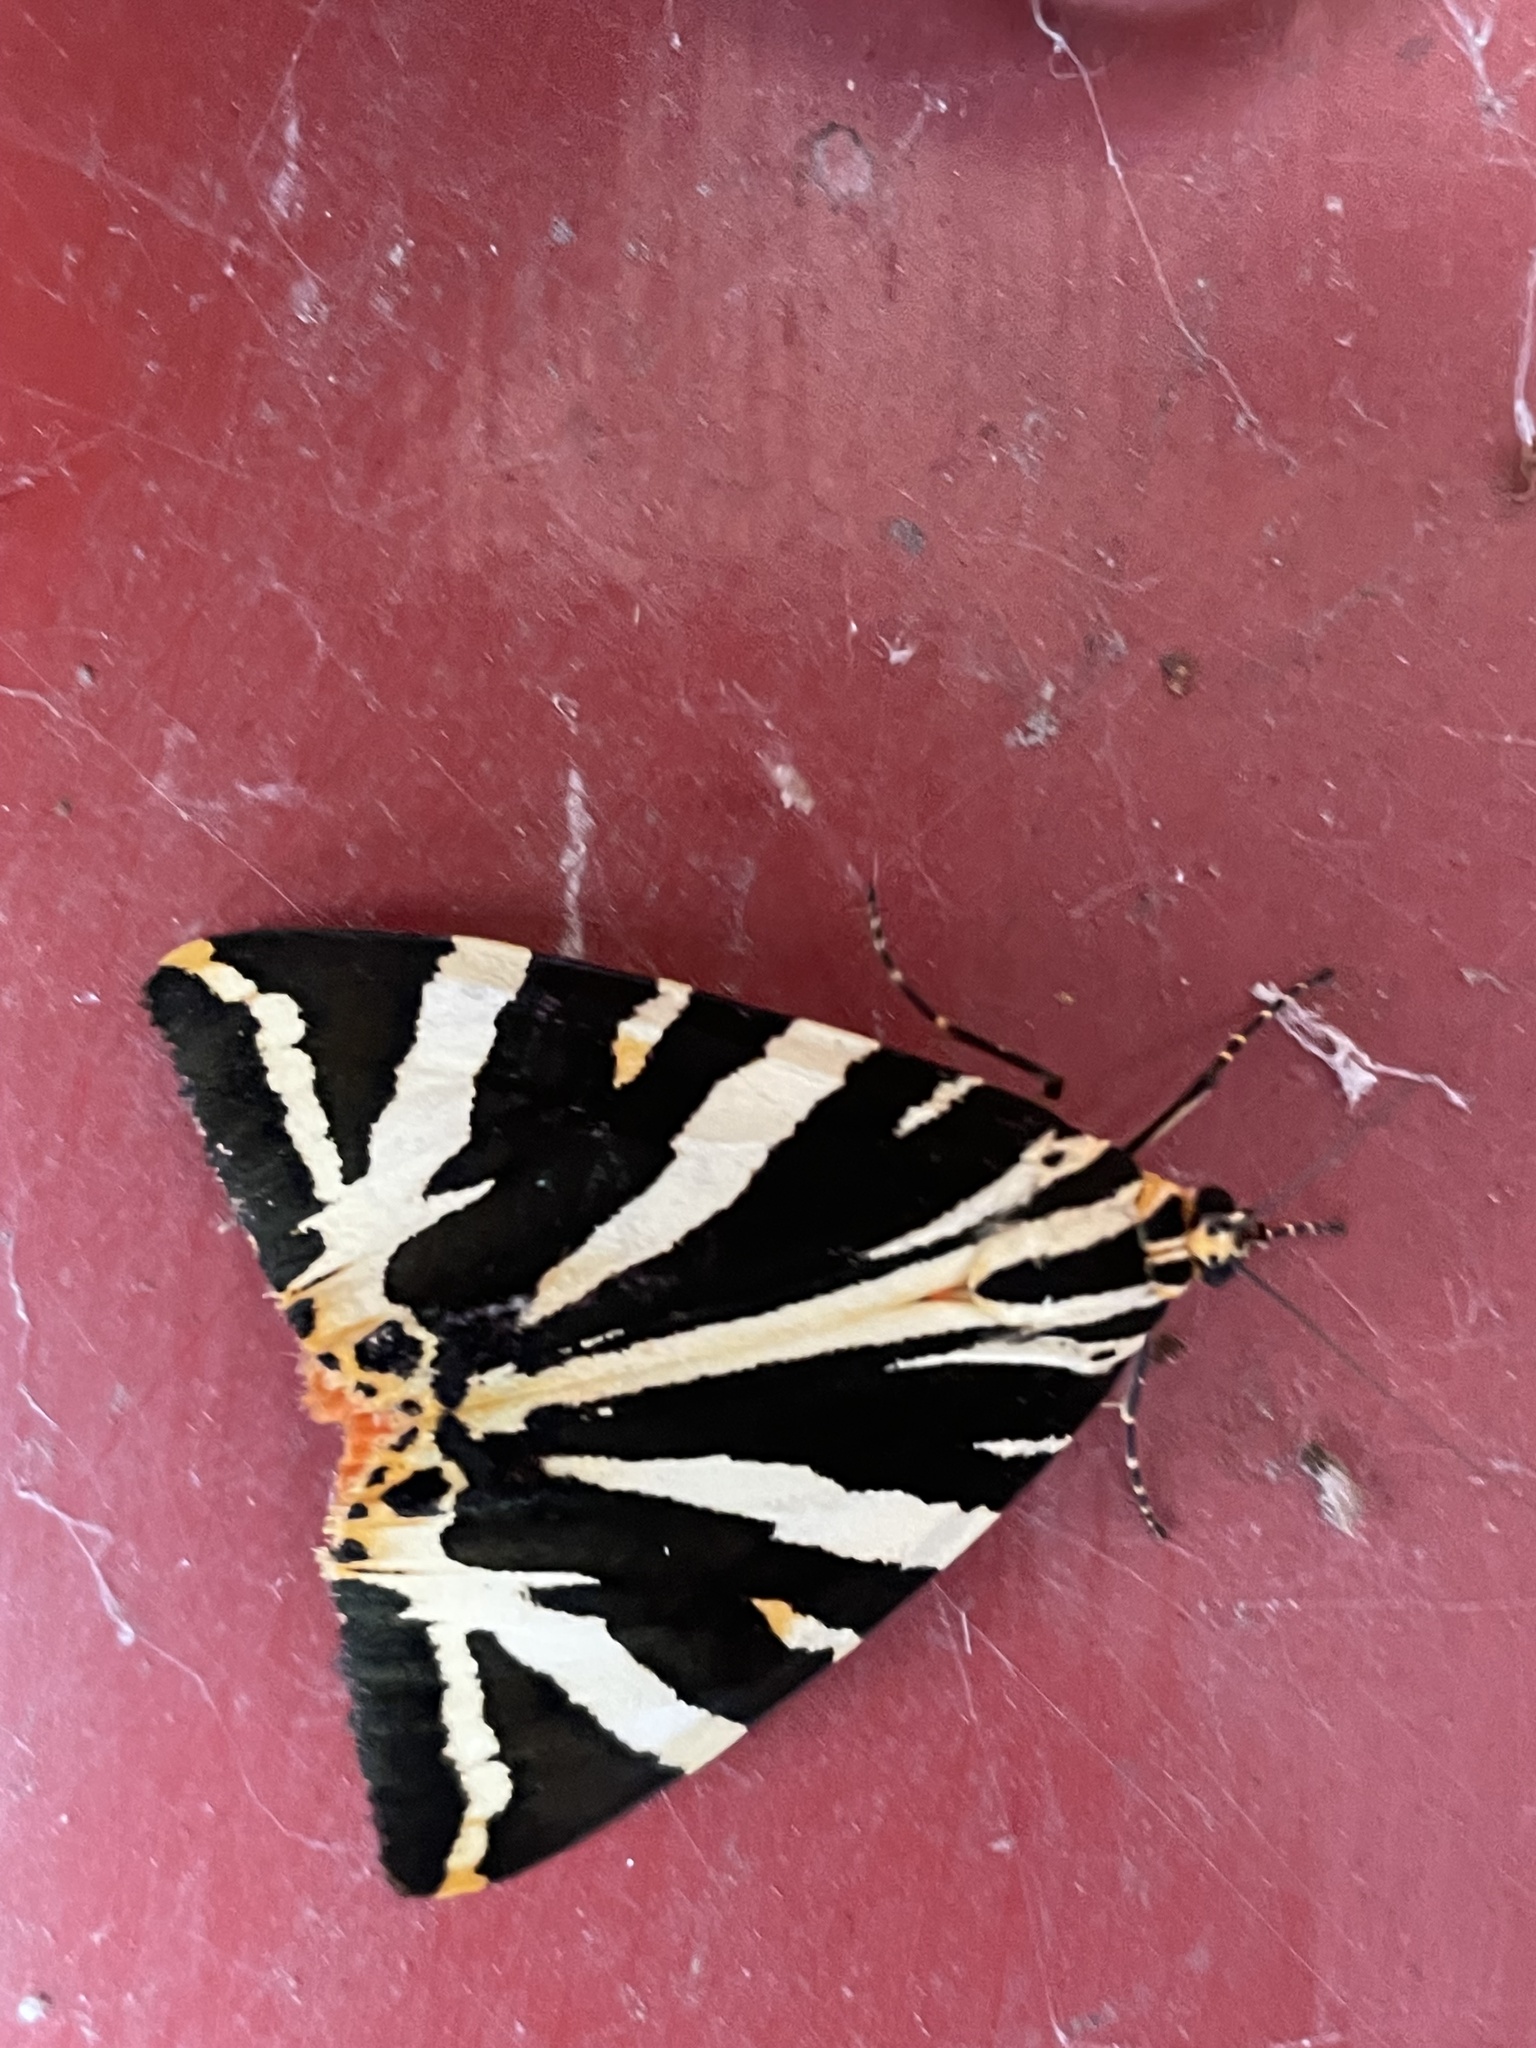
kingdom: Animalia
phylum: Arthropoda
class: Insecta
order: Lepidoptera
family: Erebidae
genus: Euplagia
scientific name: Euplagia quadripunctaria
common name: Jersey tiger
